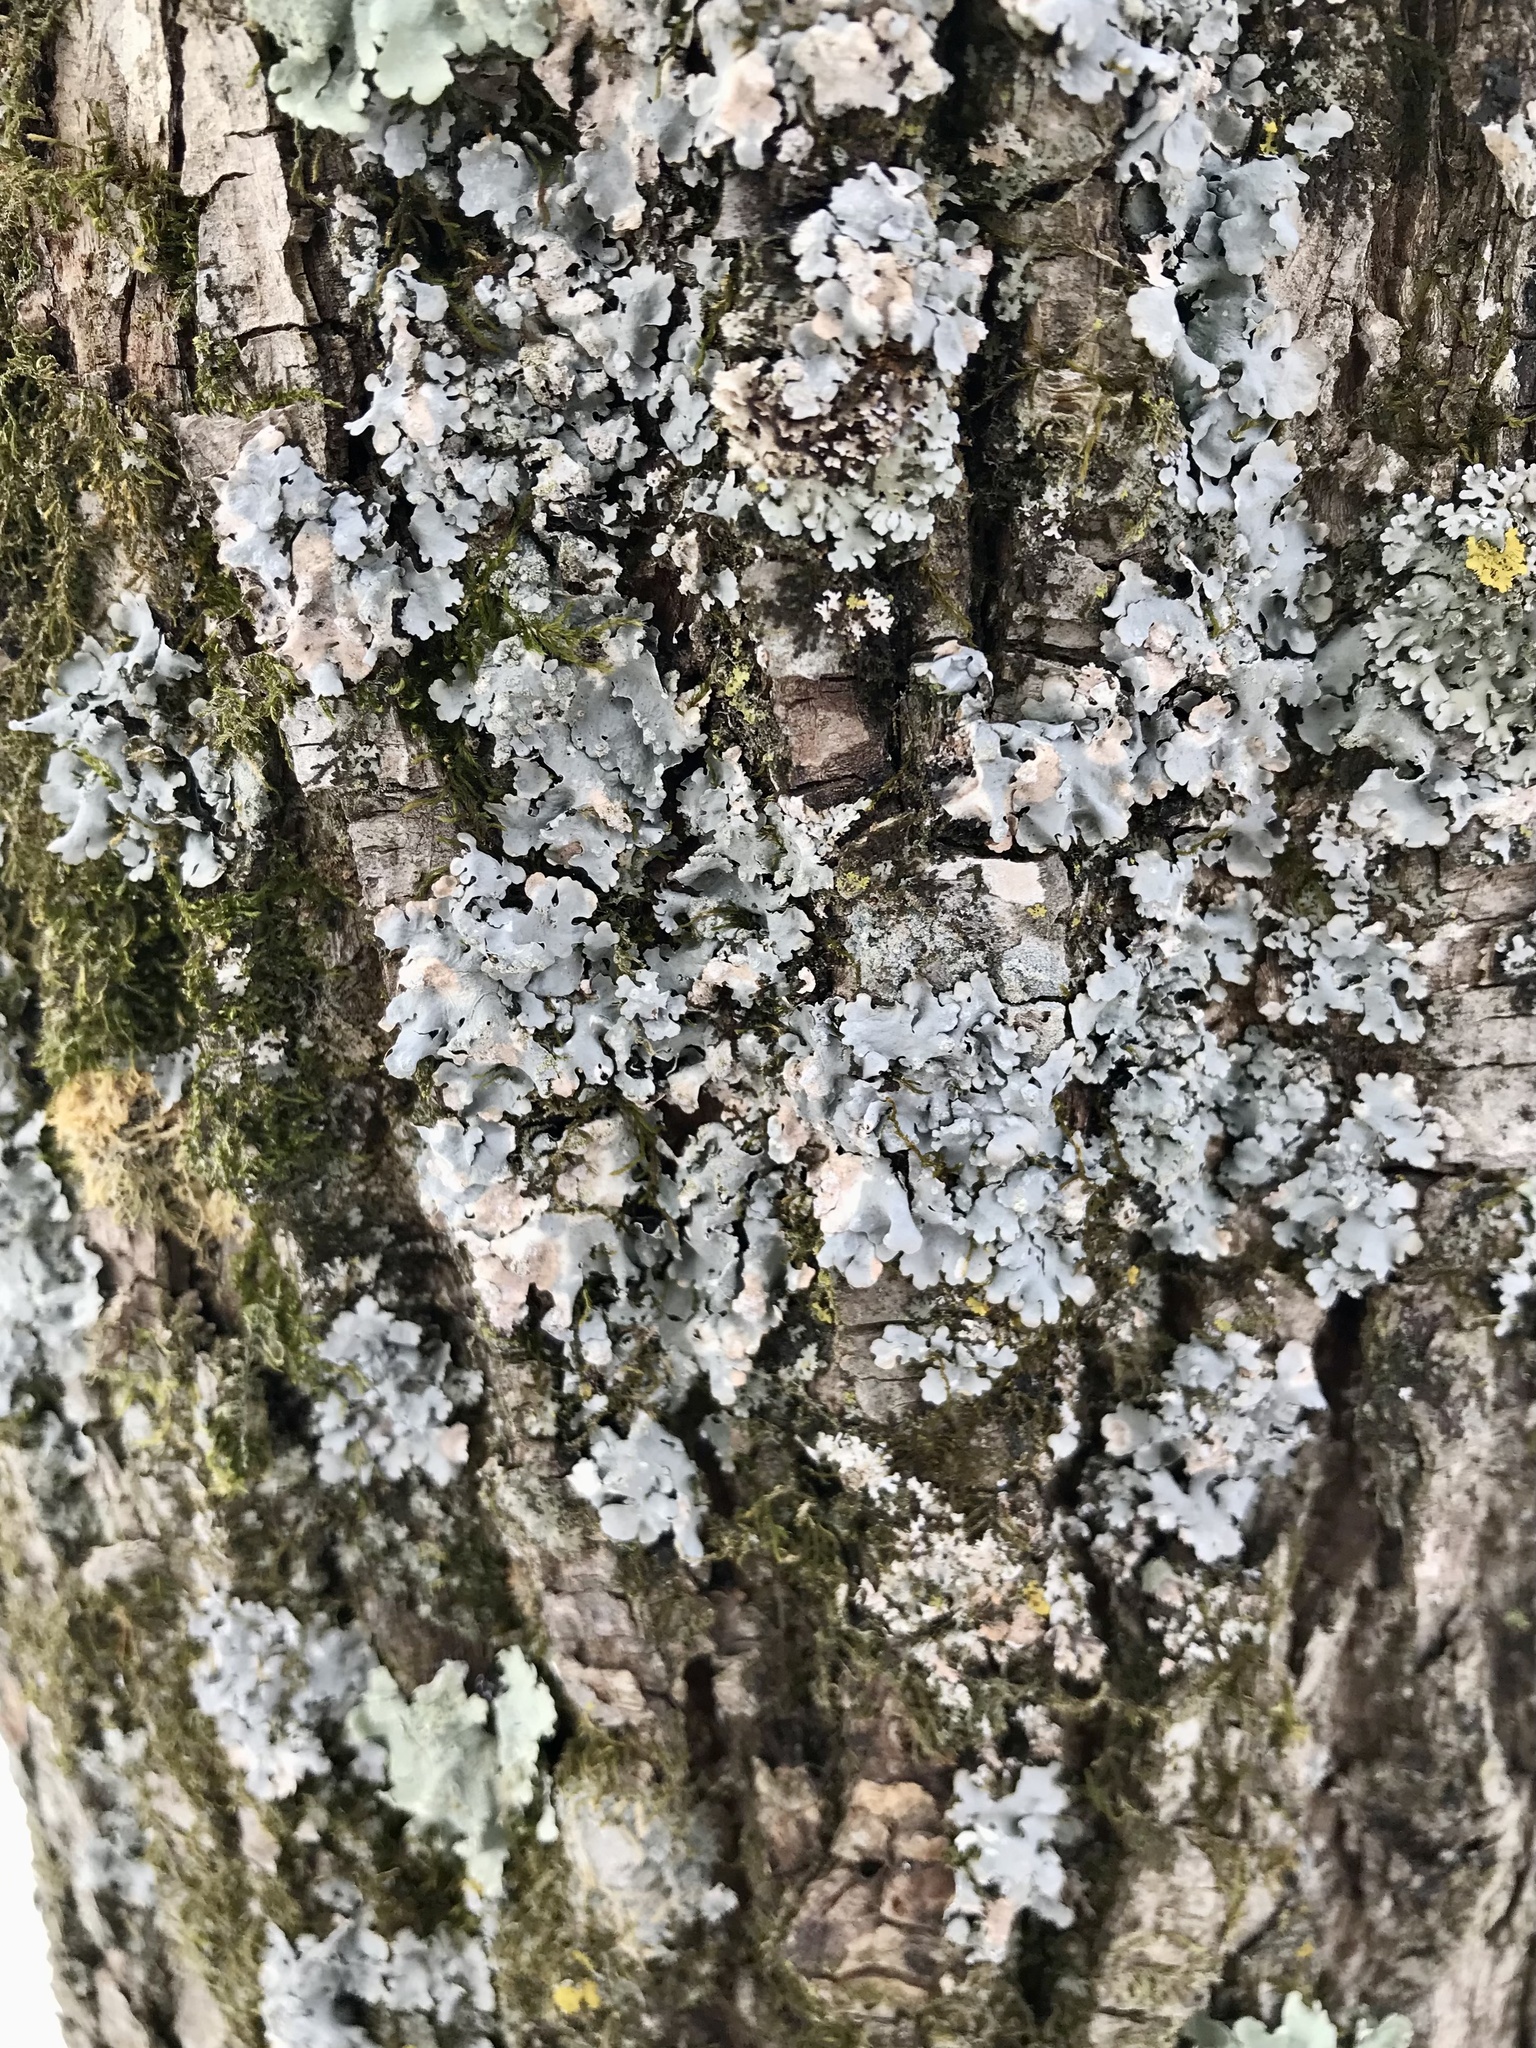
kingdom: Fungi
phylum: Ascomycota
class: Lecanoromycetes
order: Lecanorales
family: Parmeliaceae
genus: Myelochroa
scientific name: Myelochroa aurulenta
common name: Powdery axil-bristle lichen
